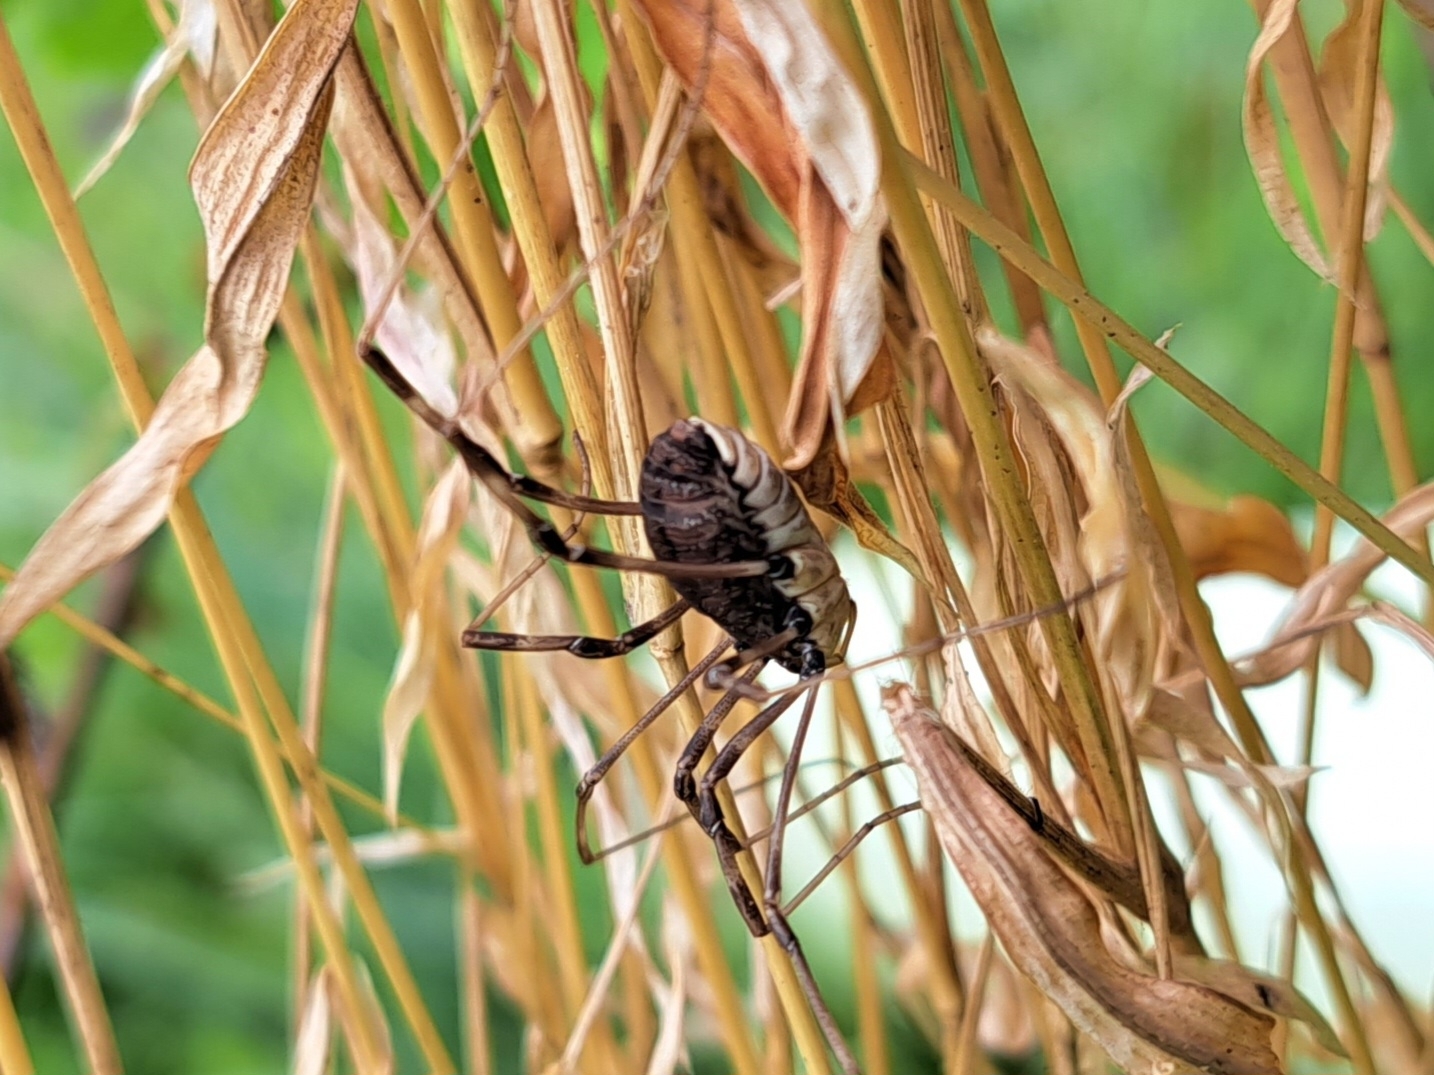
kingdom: Animalia
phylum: Arthropoda
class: Arachnida
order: Opiliones
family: Sclerosomatidae
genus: Hadrobunus
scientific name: Hadrobunus maculosus
